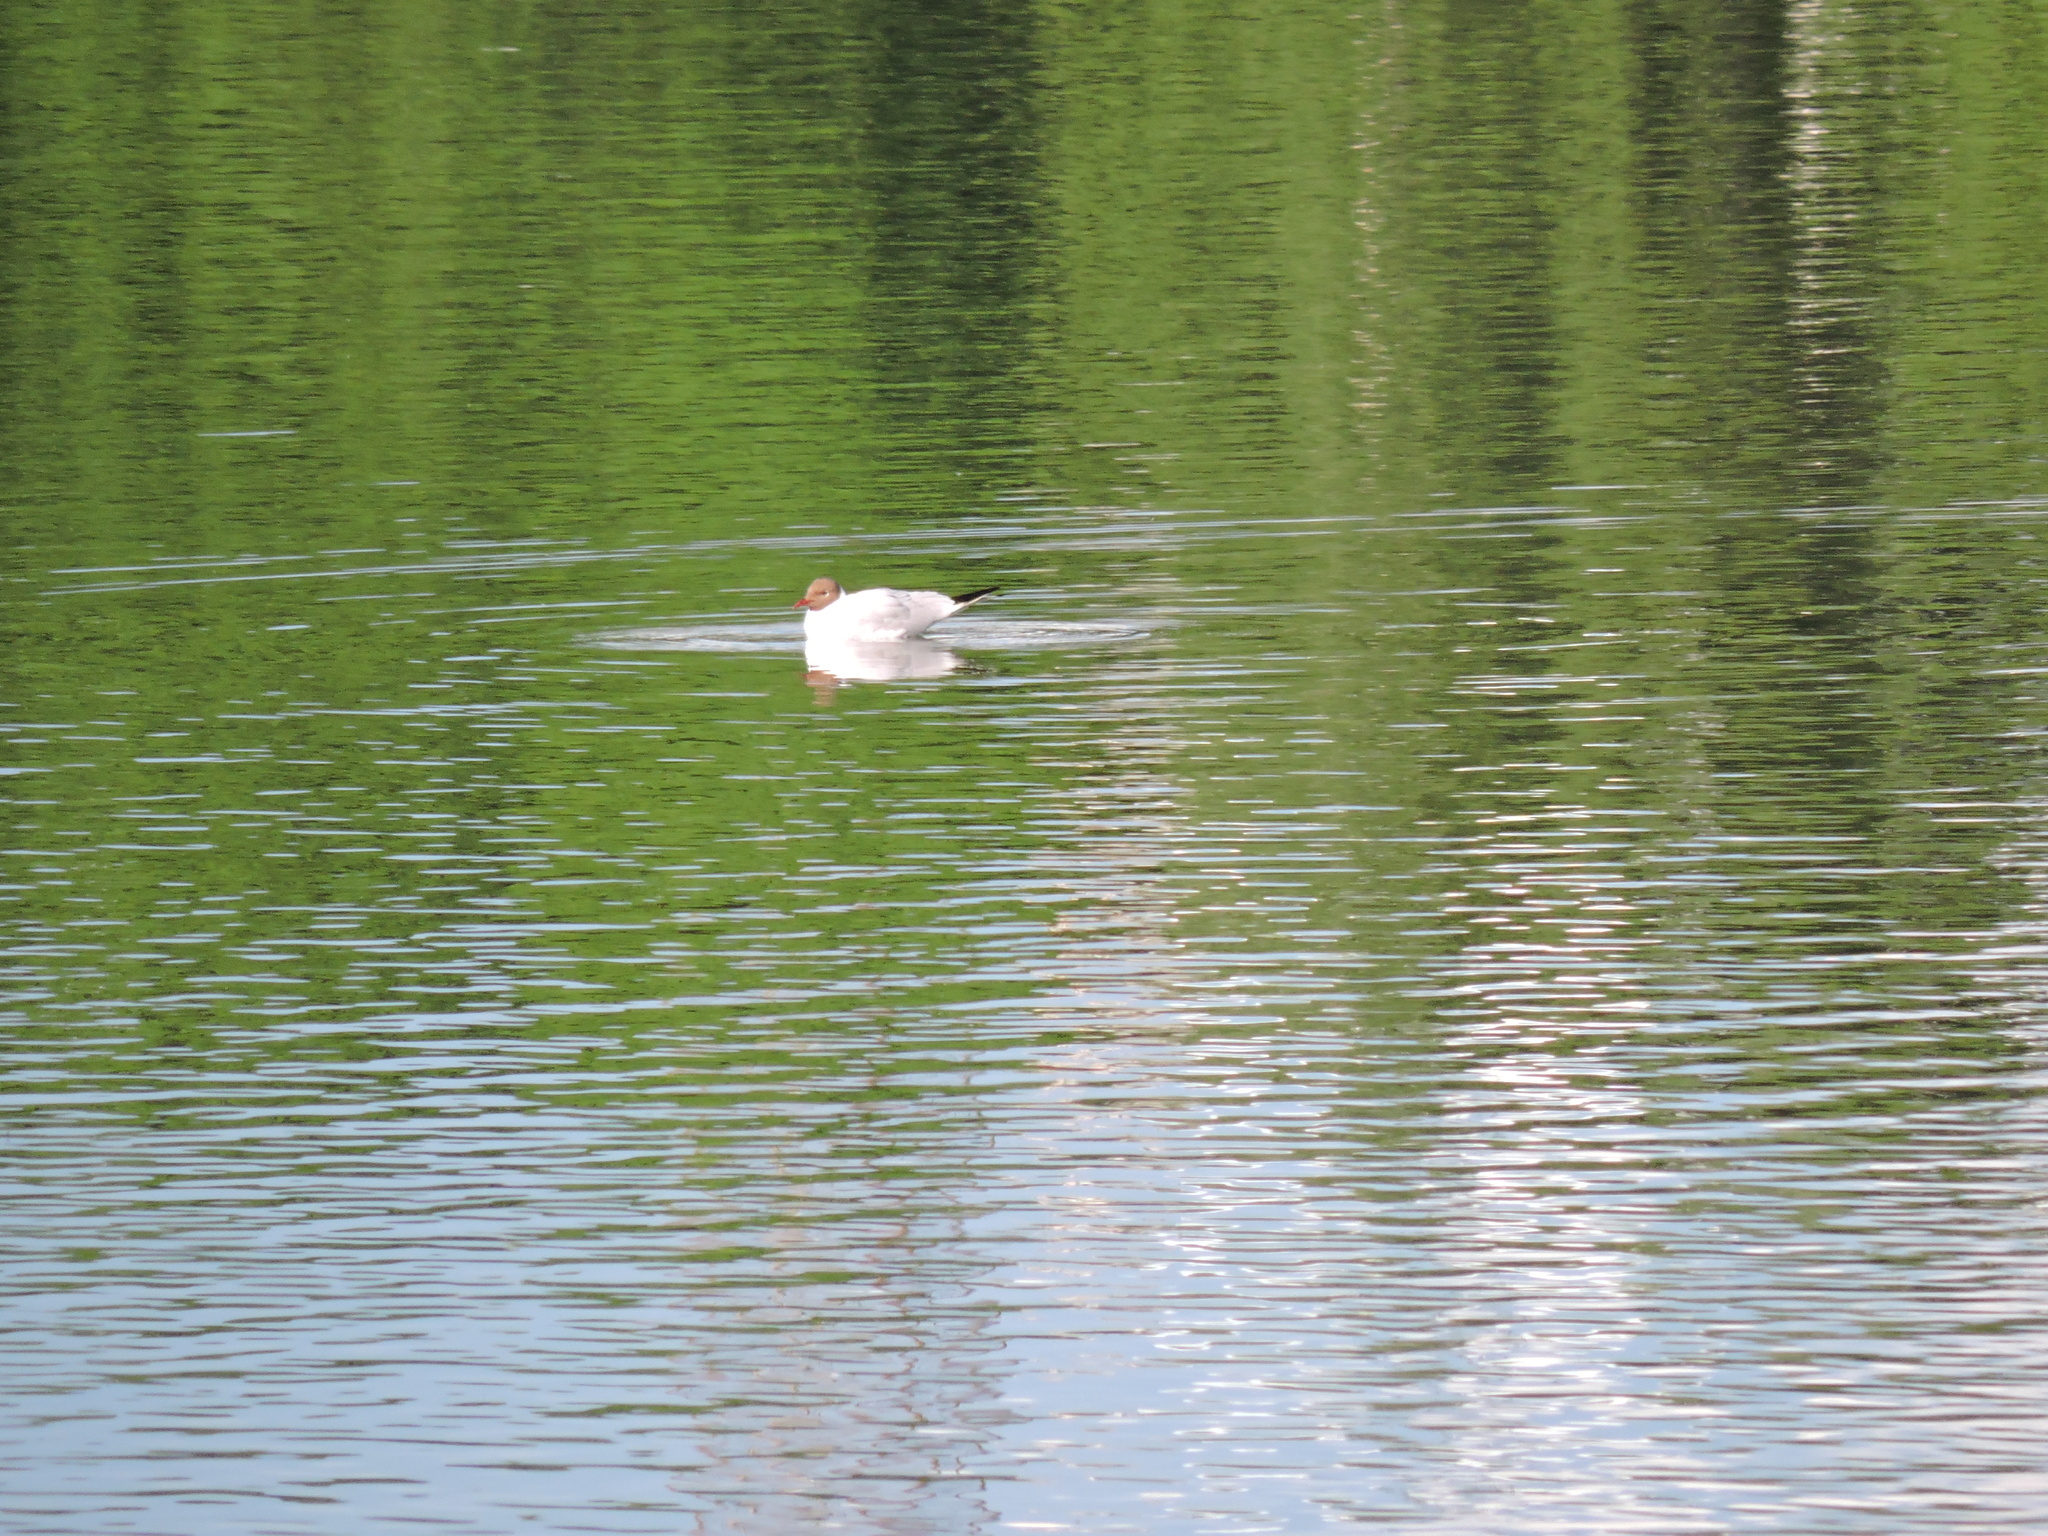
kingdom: Animalia
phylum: Chordata
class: Aves
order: Charadriiformes
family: Laridae
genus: Chroicocephalus
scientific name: Chroicocephalus ridibundus
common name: Black-headed gull
